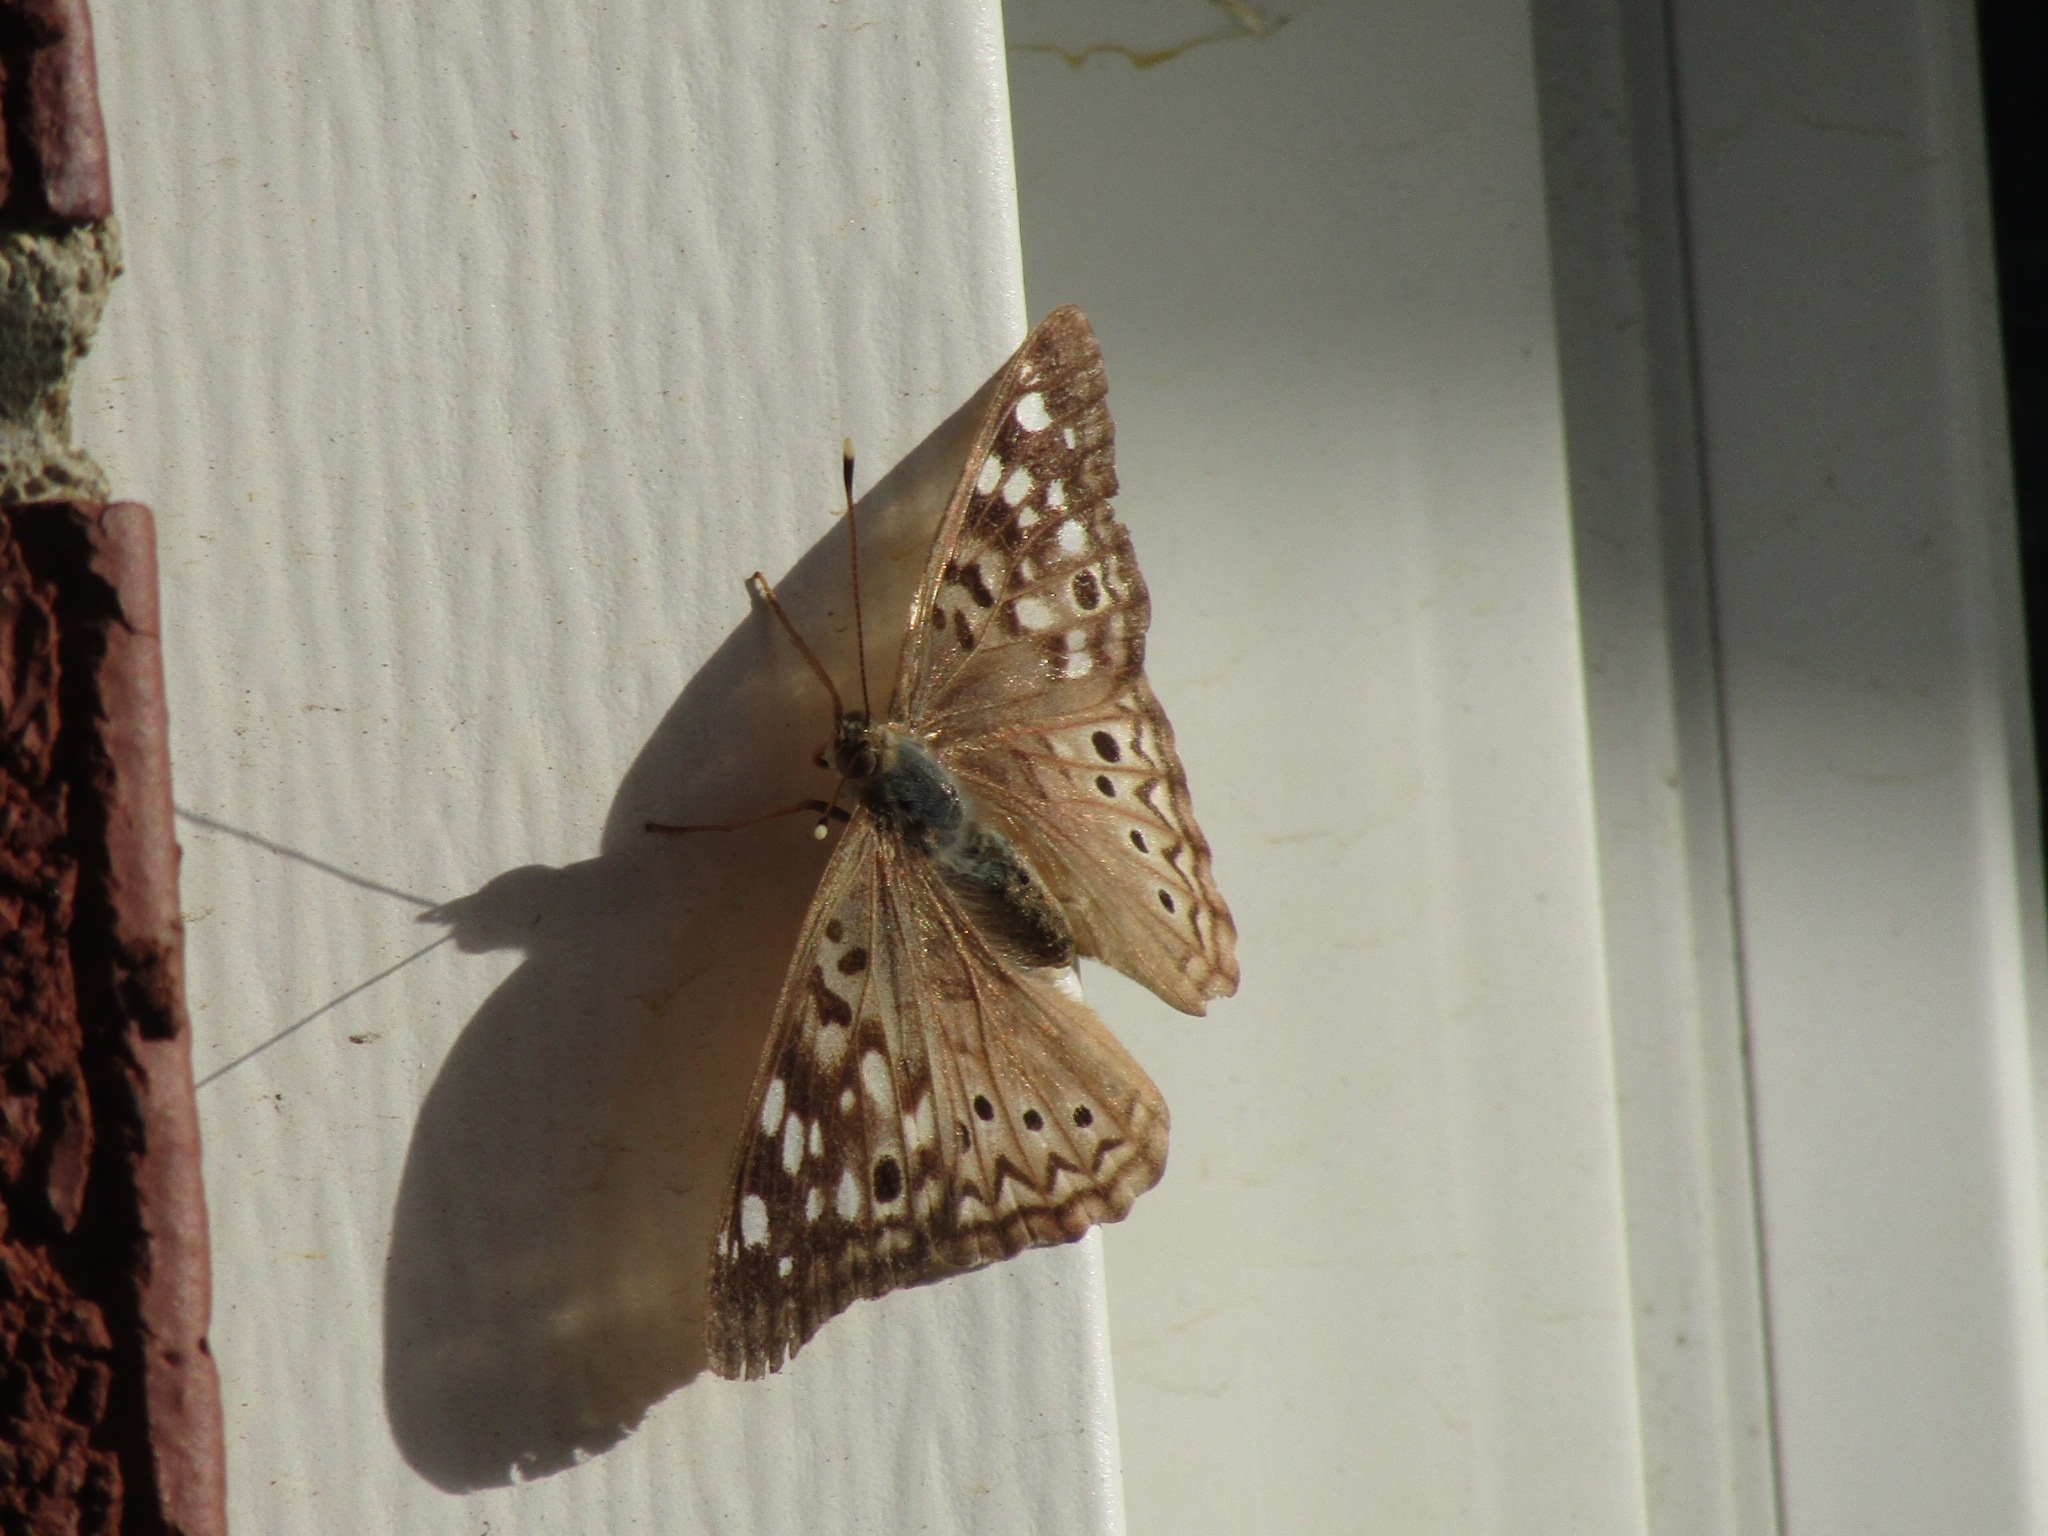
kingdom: Animalia
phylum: Arthropoda
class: Insecta
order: Lepidoptera
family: Nymphalidae
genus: Asterocampa
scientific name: Asterocampa celtis
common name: Hackberry emperor
